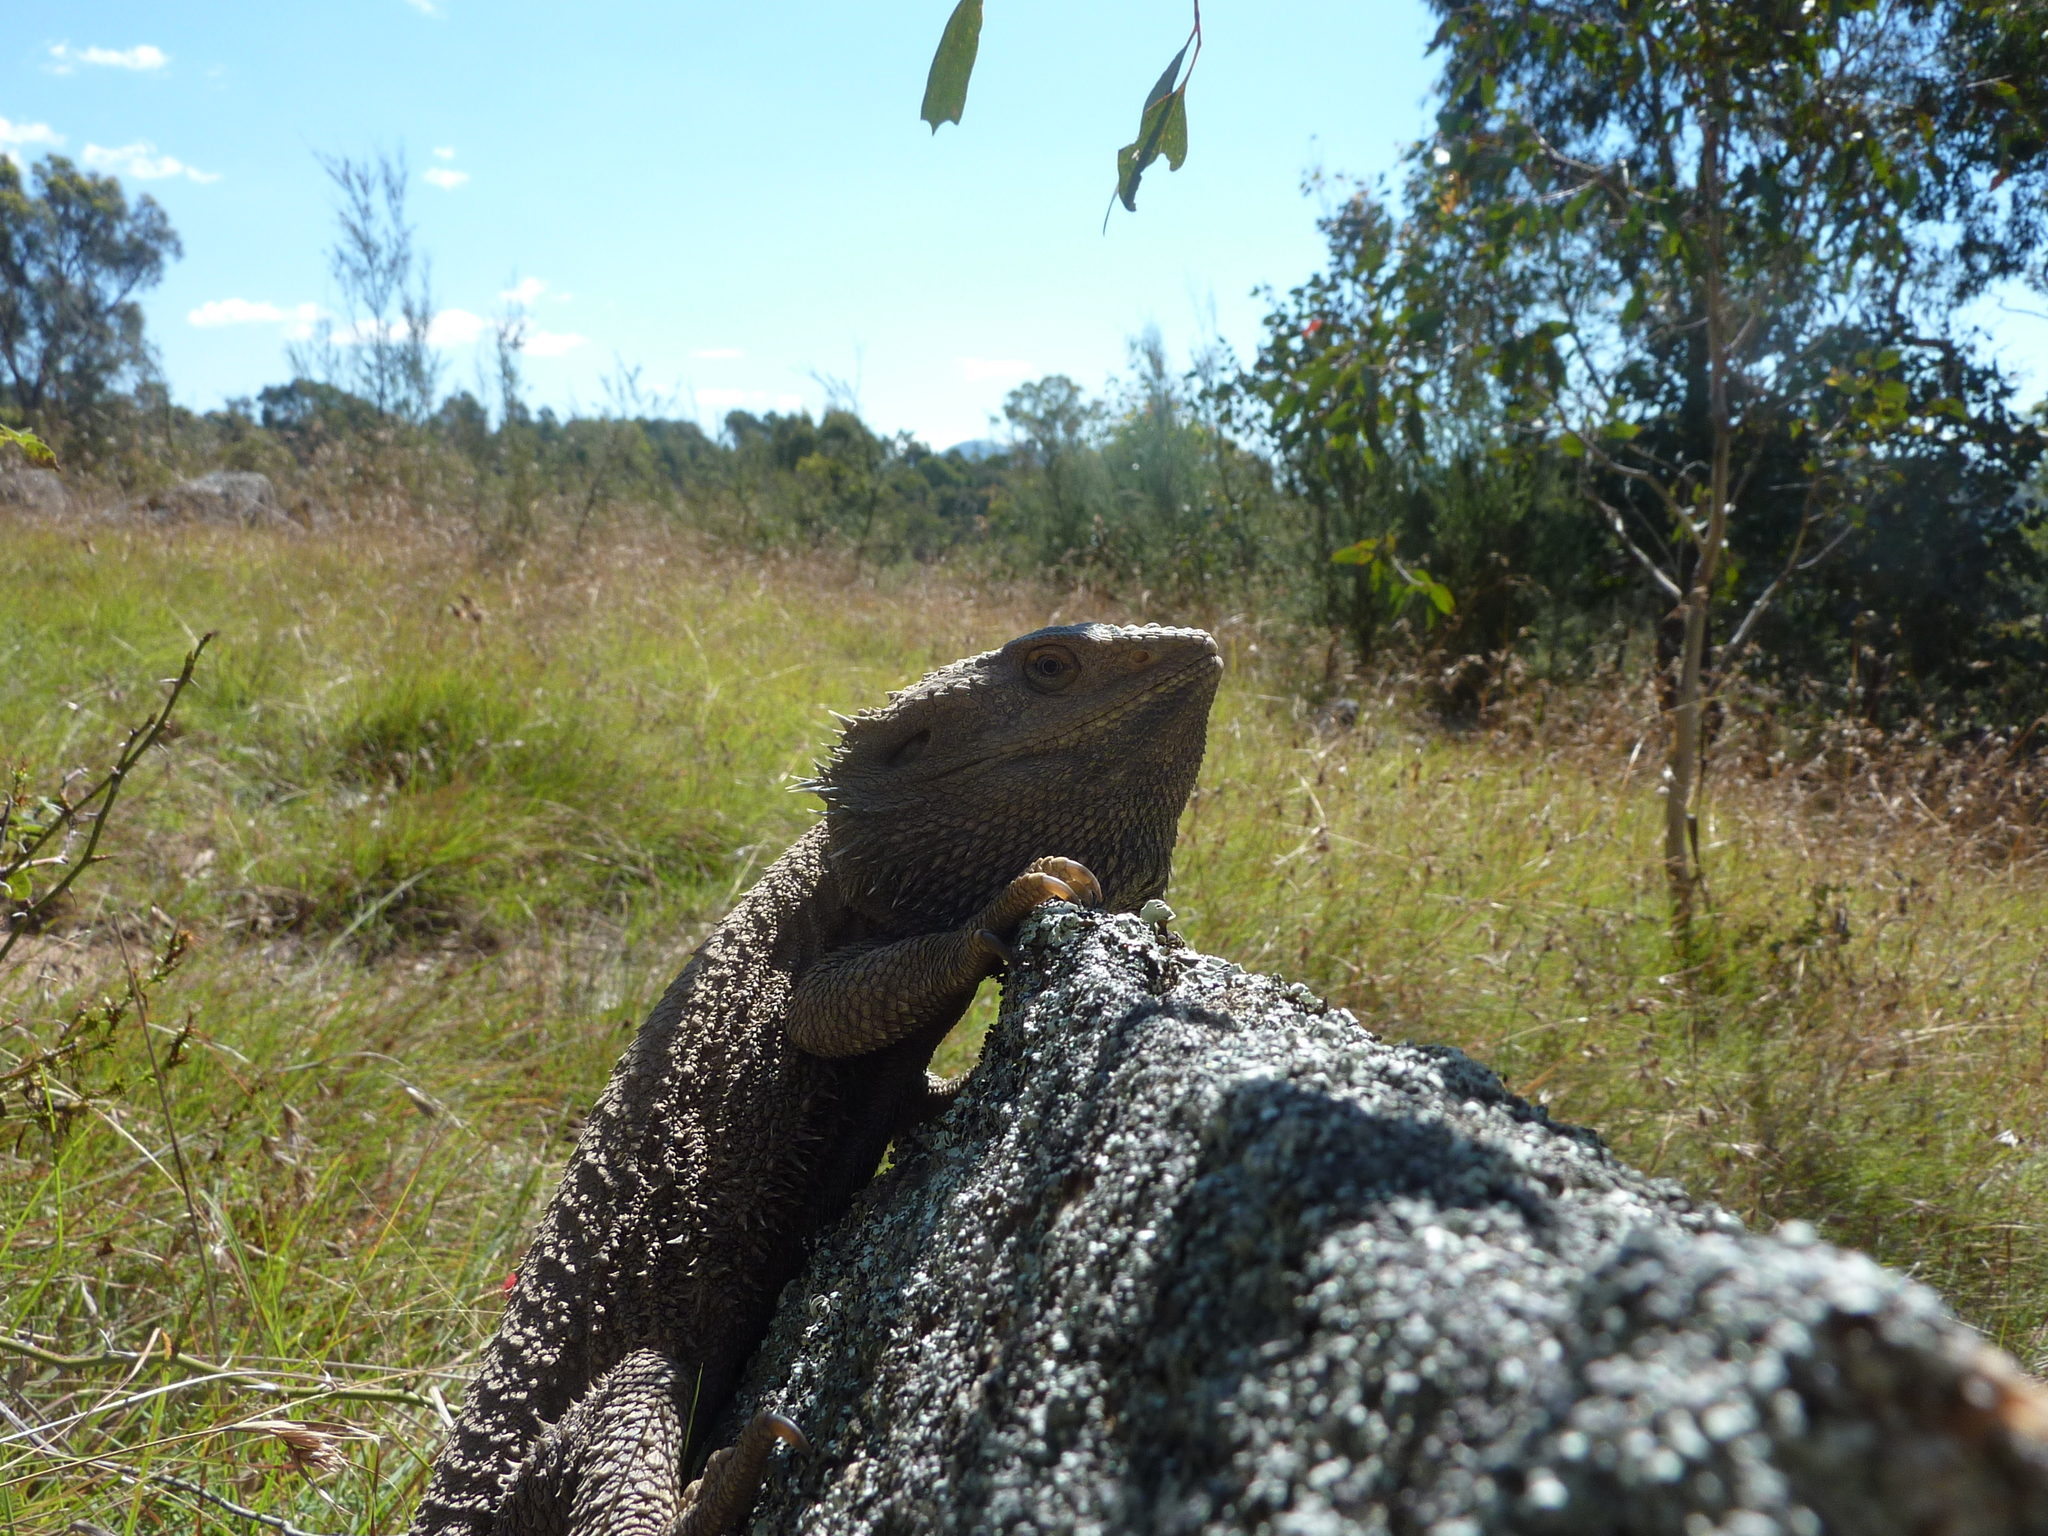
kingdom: Animalia
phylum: Chordata
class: Squamata
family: Agamidae
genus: Pogona
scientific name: Pogona barbata
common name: Bearded dragon
